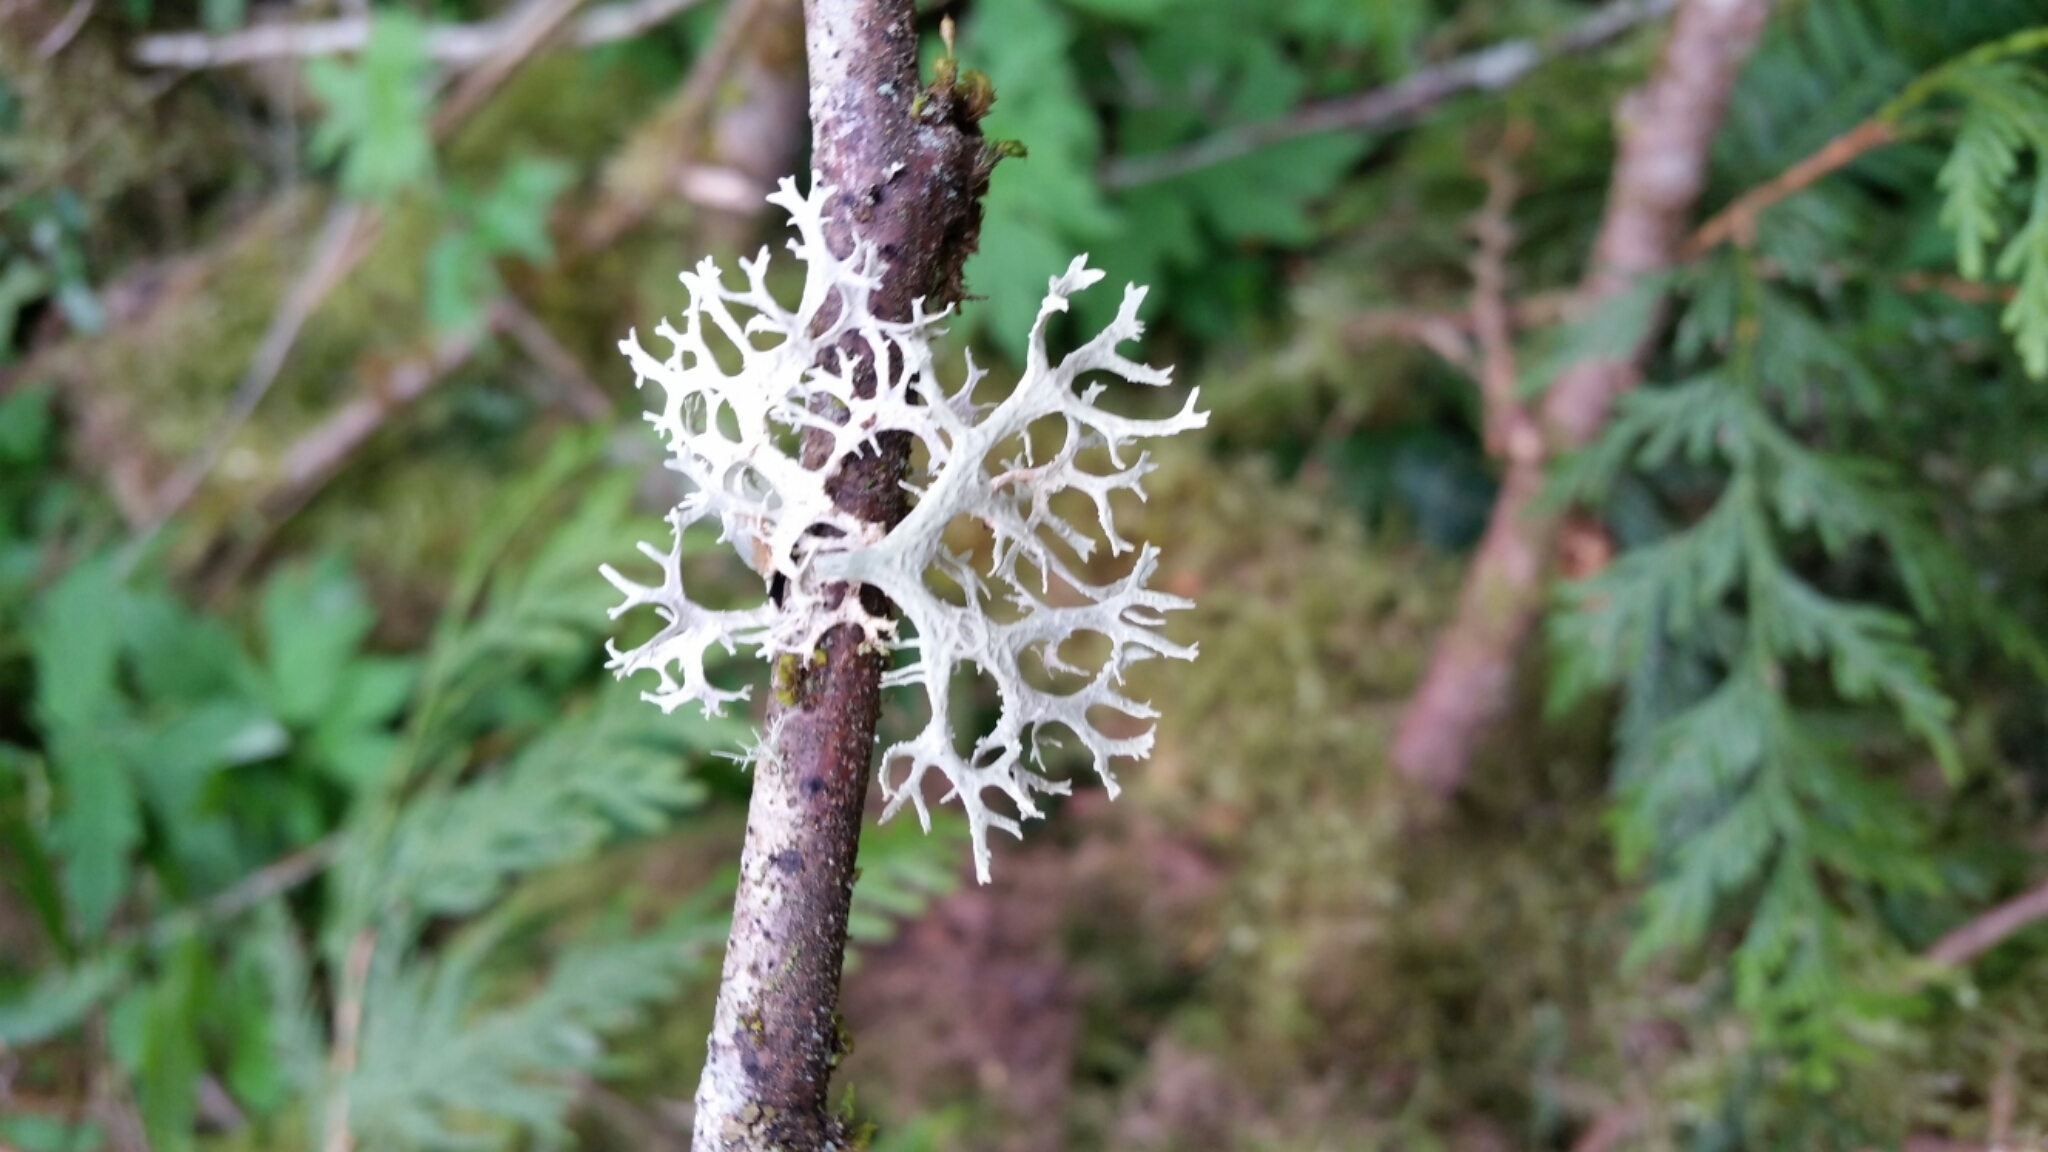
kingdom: Fungi
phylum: Ascomycota
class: Lecanoromycetes
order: Lecanorales
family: Parmeliaceae
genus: Evernia
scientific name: Evernia prunastri
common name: Oak moss
